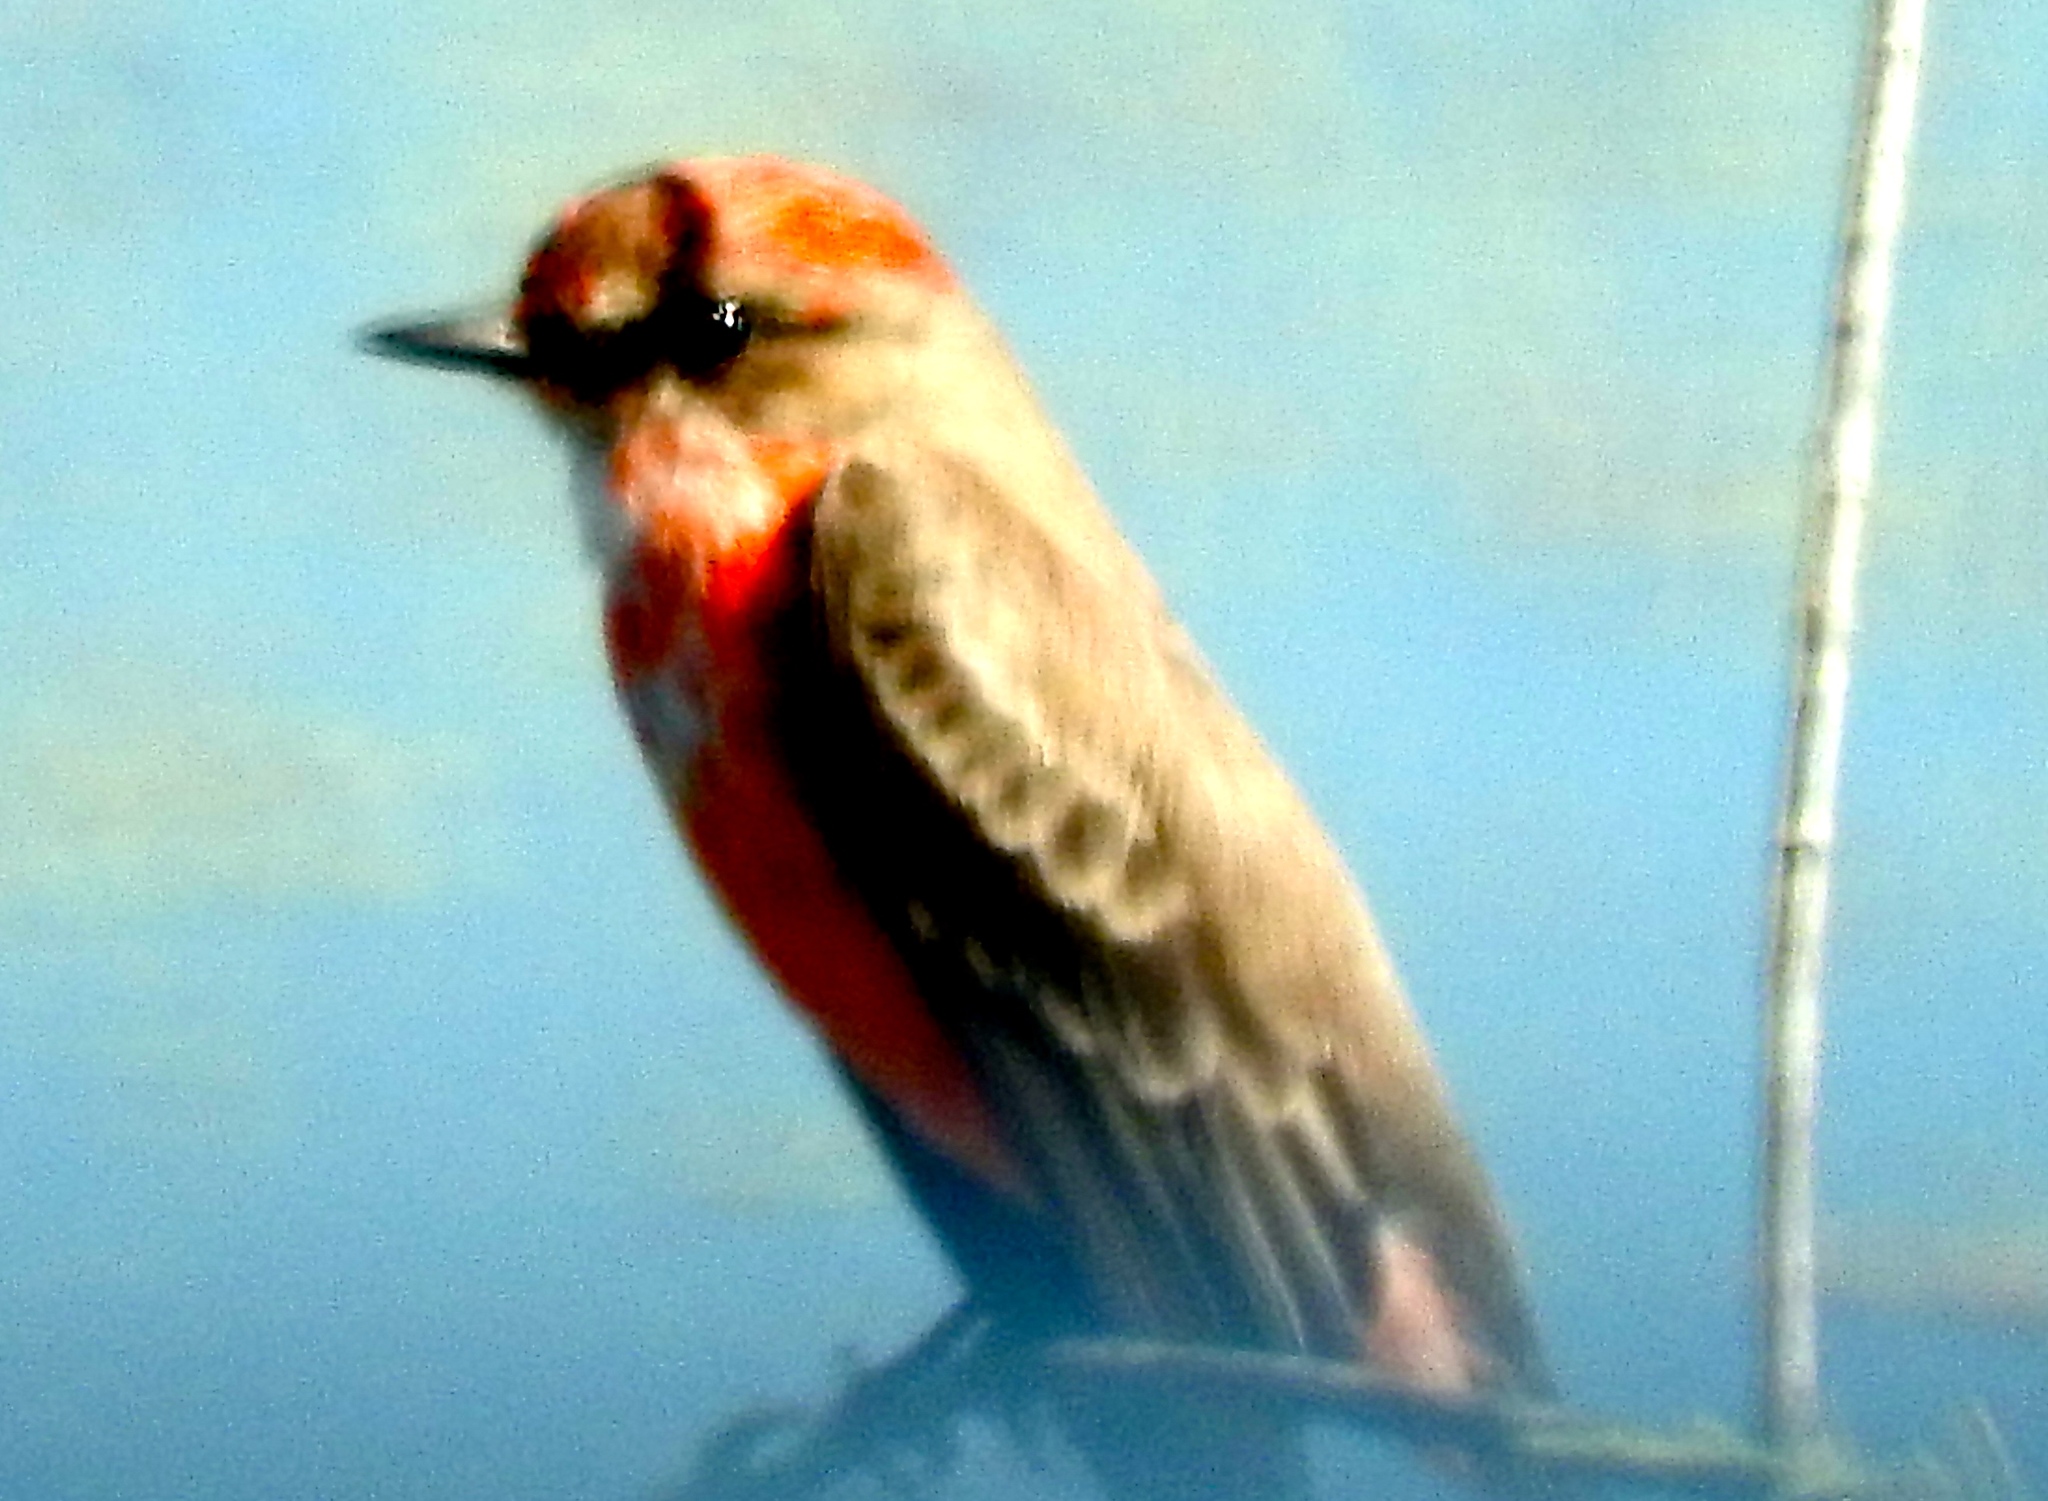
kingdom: Animalia
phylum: Chordata
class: Aves
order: Passeriformes
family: Tyrannidae
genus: Pyrocephalus
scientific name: Pyrocephalus rubinus
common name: Vermilion flycatcher
